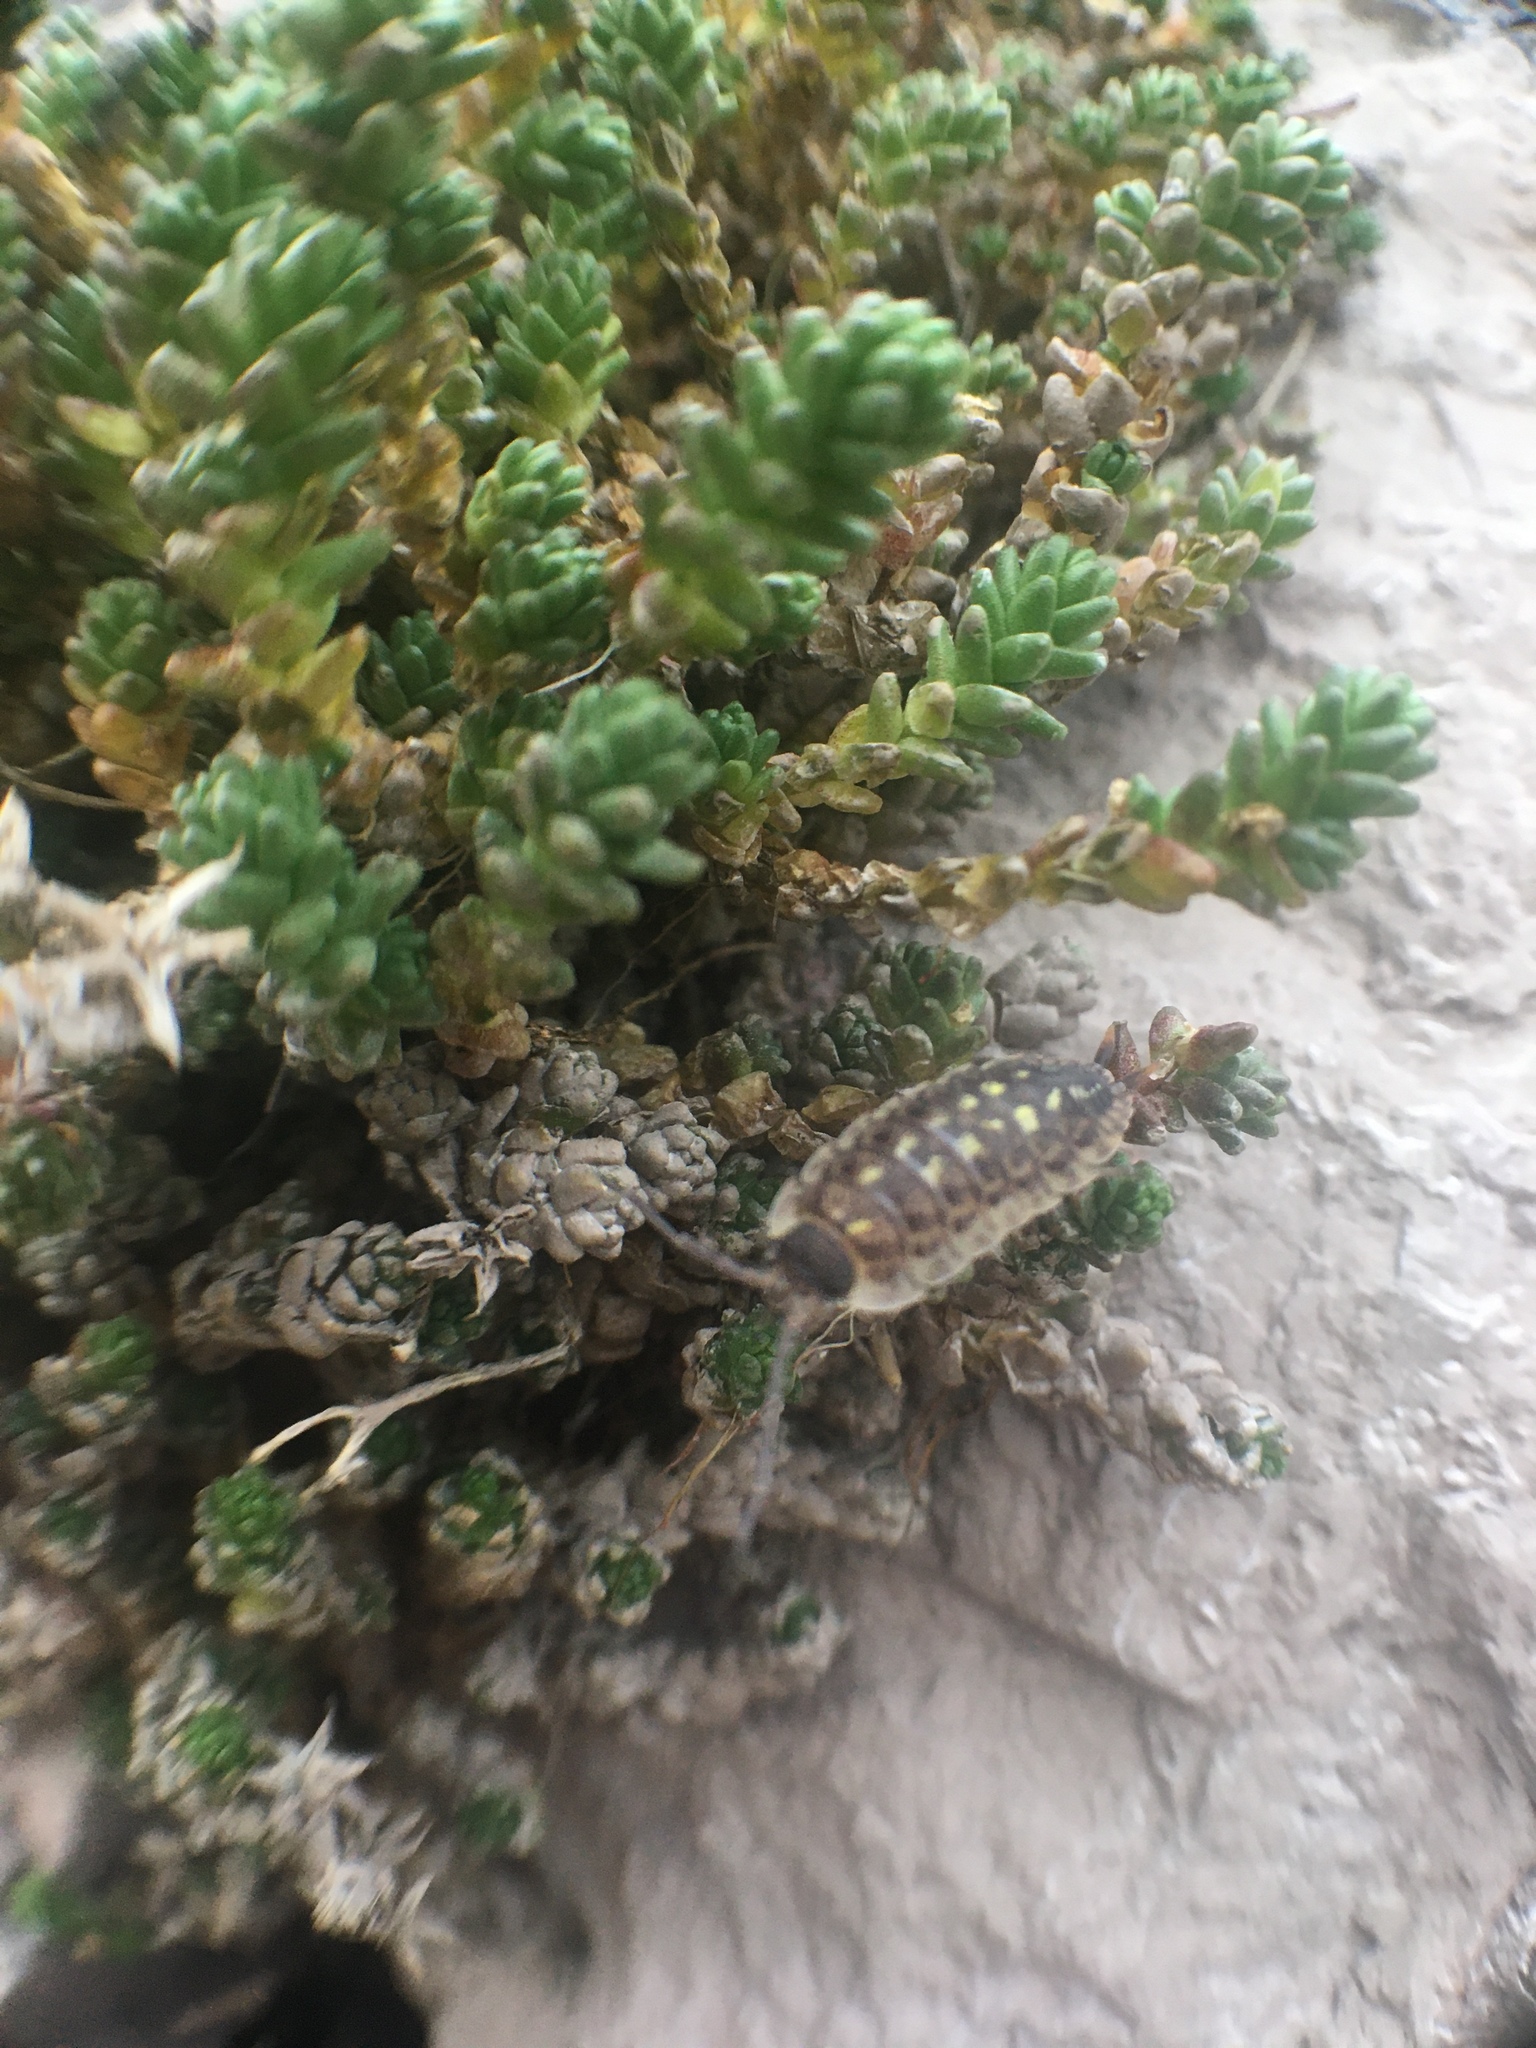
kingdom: Animalia
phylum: Arthropoda
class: Malacostraca
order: Isopoda
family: Porcellionidae
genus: Porcellio
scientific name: Porcellio spinicornis
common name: Painted woodlouse
